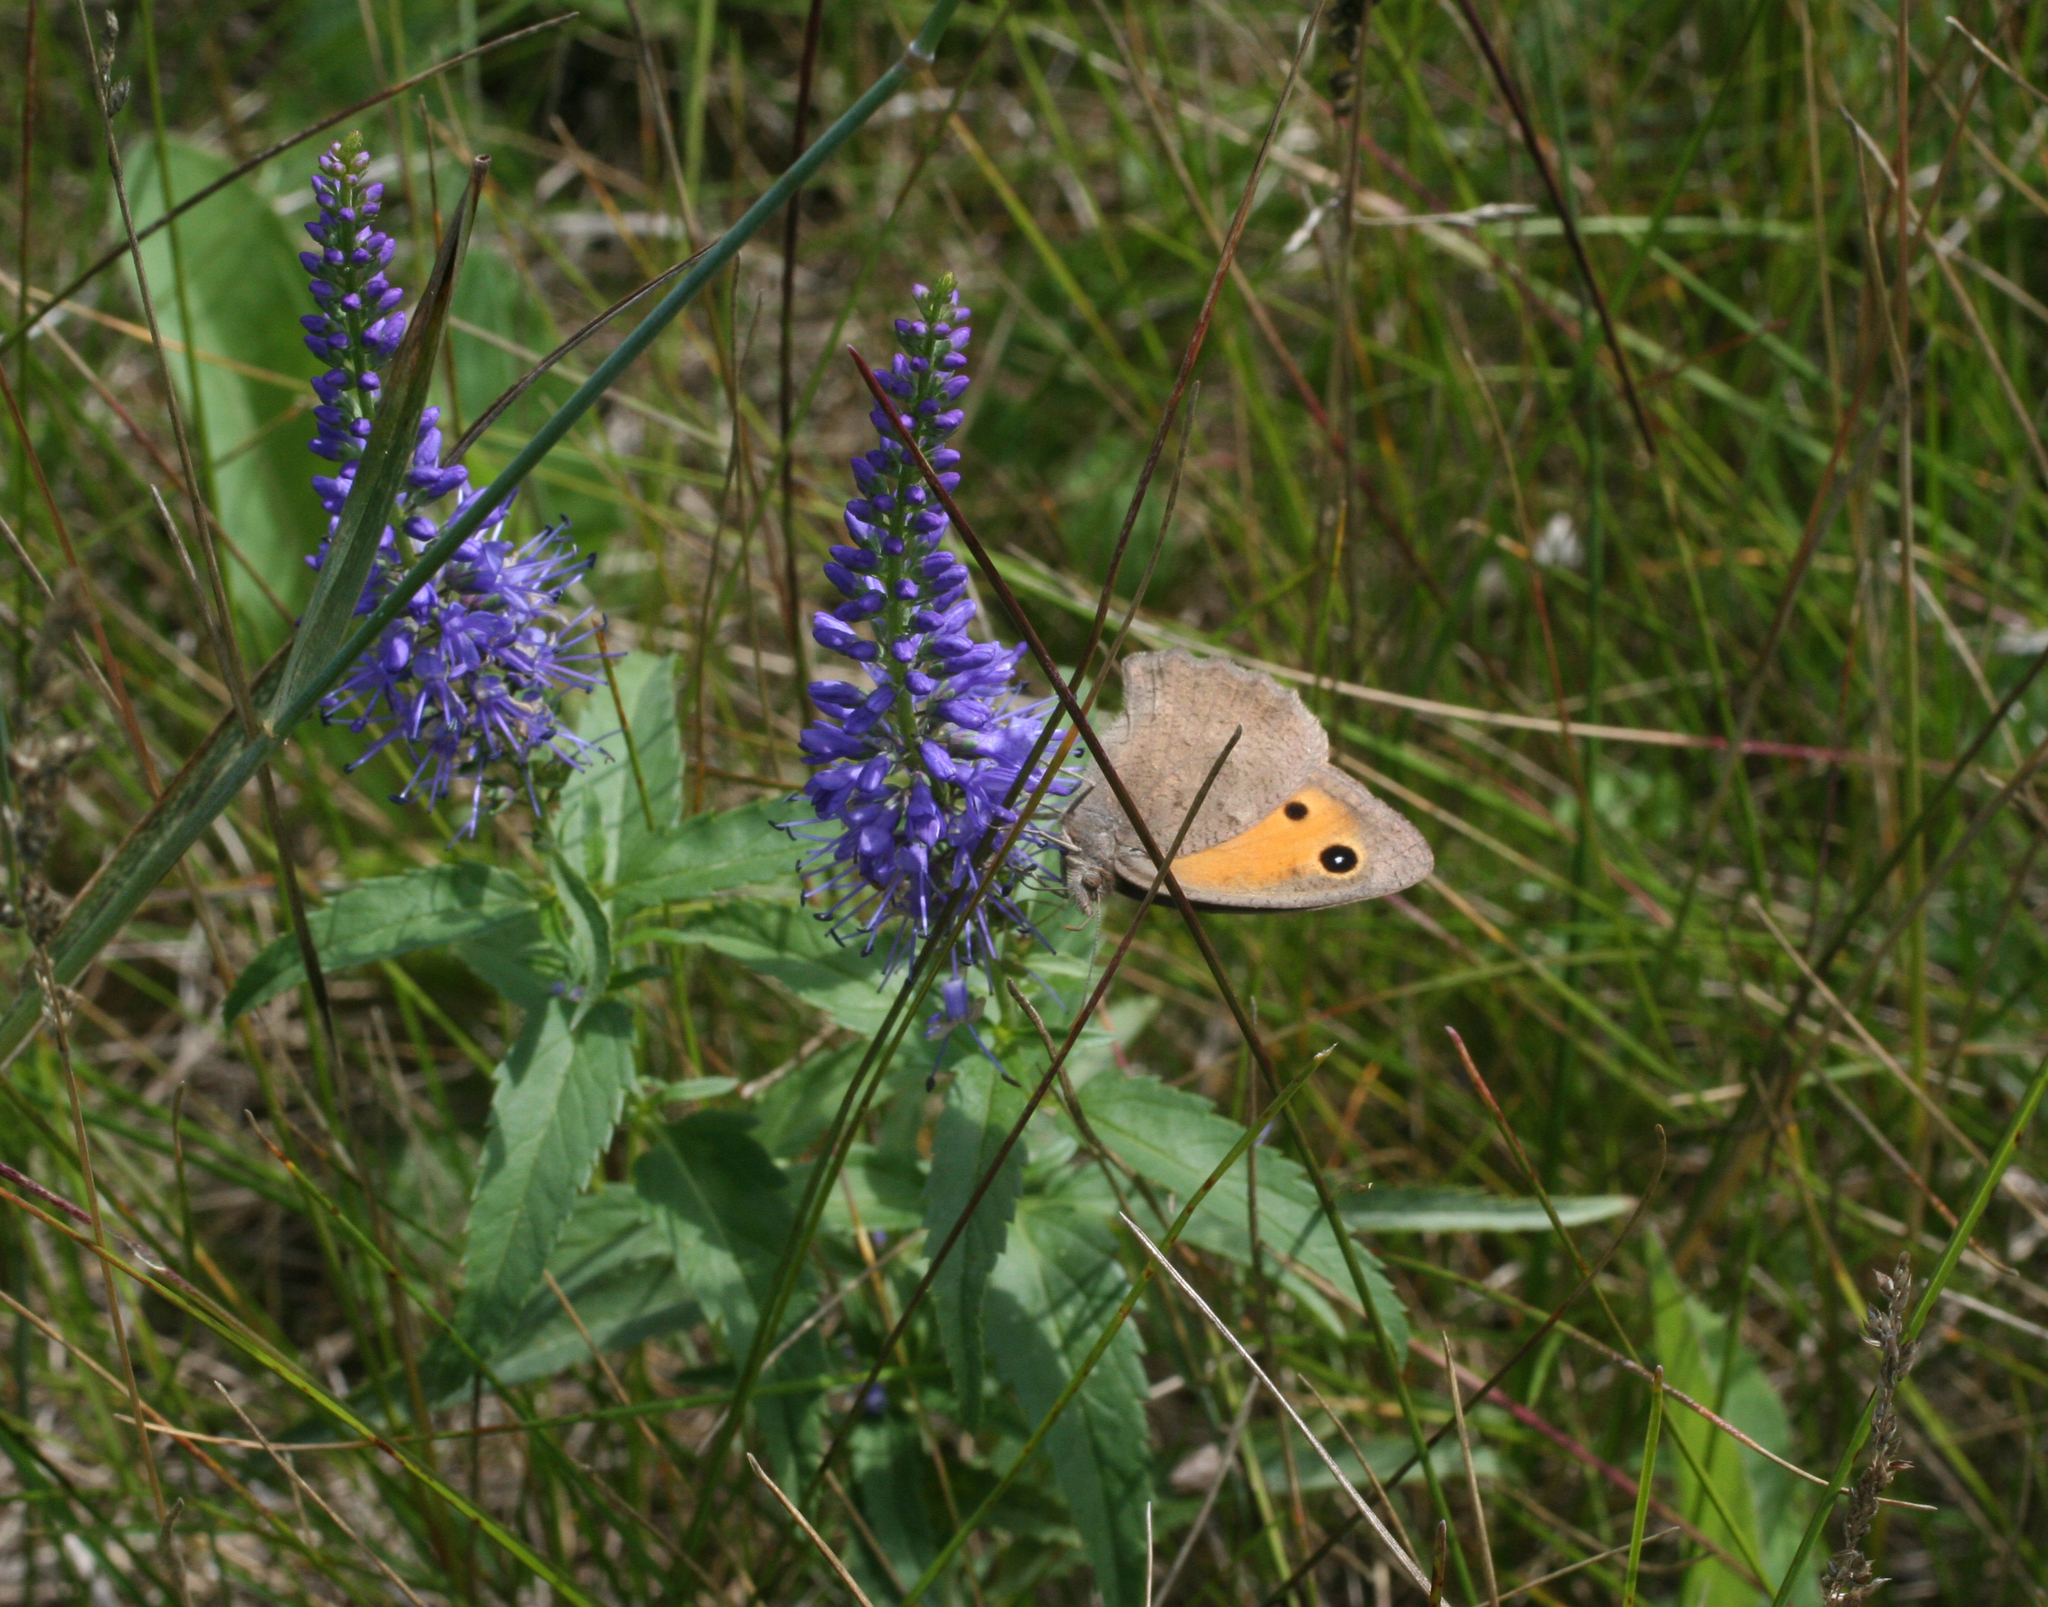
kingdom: Animalia
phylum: Arthropoda
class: Insecta
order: Lepidoptera
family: Nymphalidae
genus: Hyponephele
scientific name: Hyponephele lycaon
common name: Dusky meadow brown
